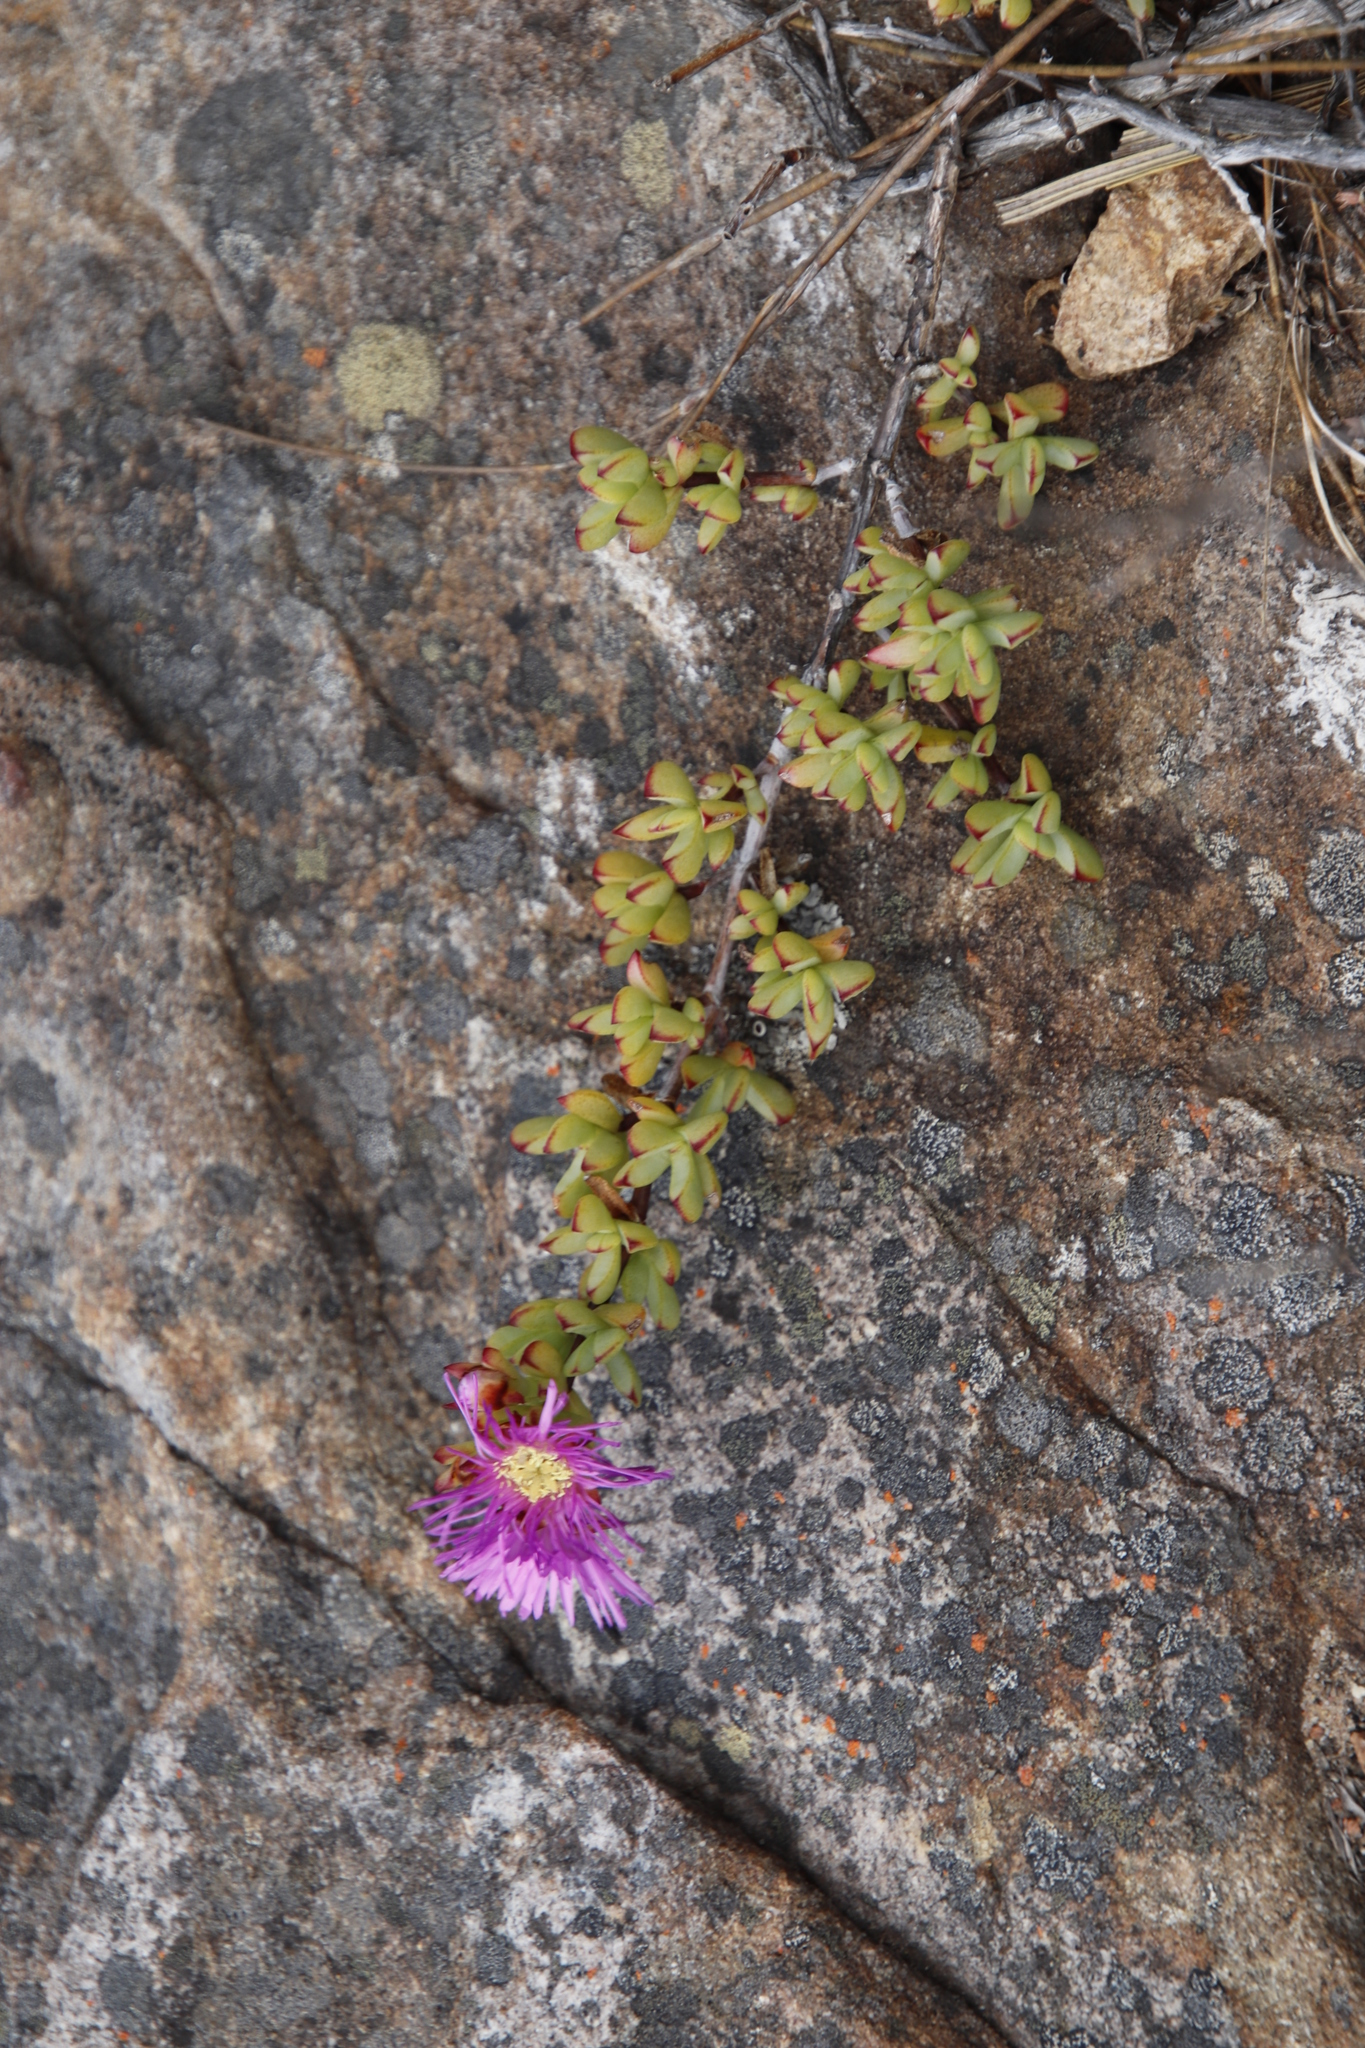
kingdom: Plantae
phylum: Tracheophyta
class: Magnoliopsida
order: Caryophyllales
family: Aizoaceae
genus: Oscularia
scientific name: Oscularia falciformis
